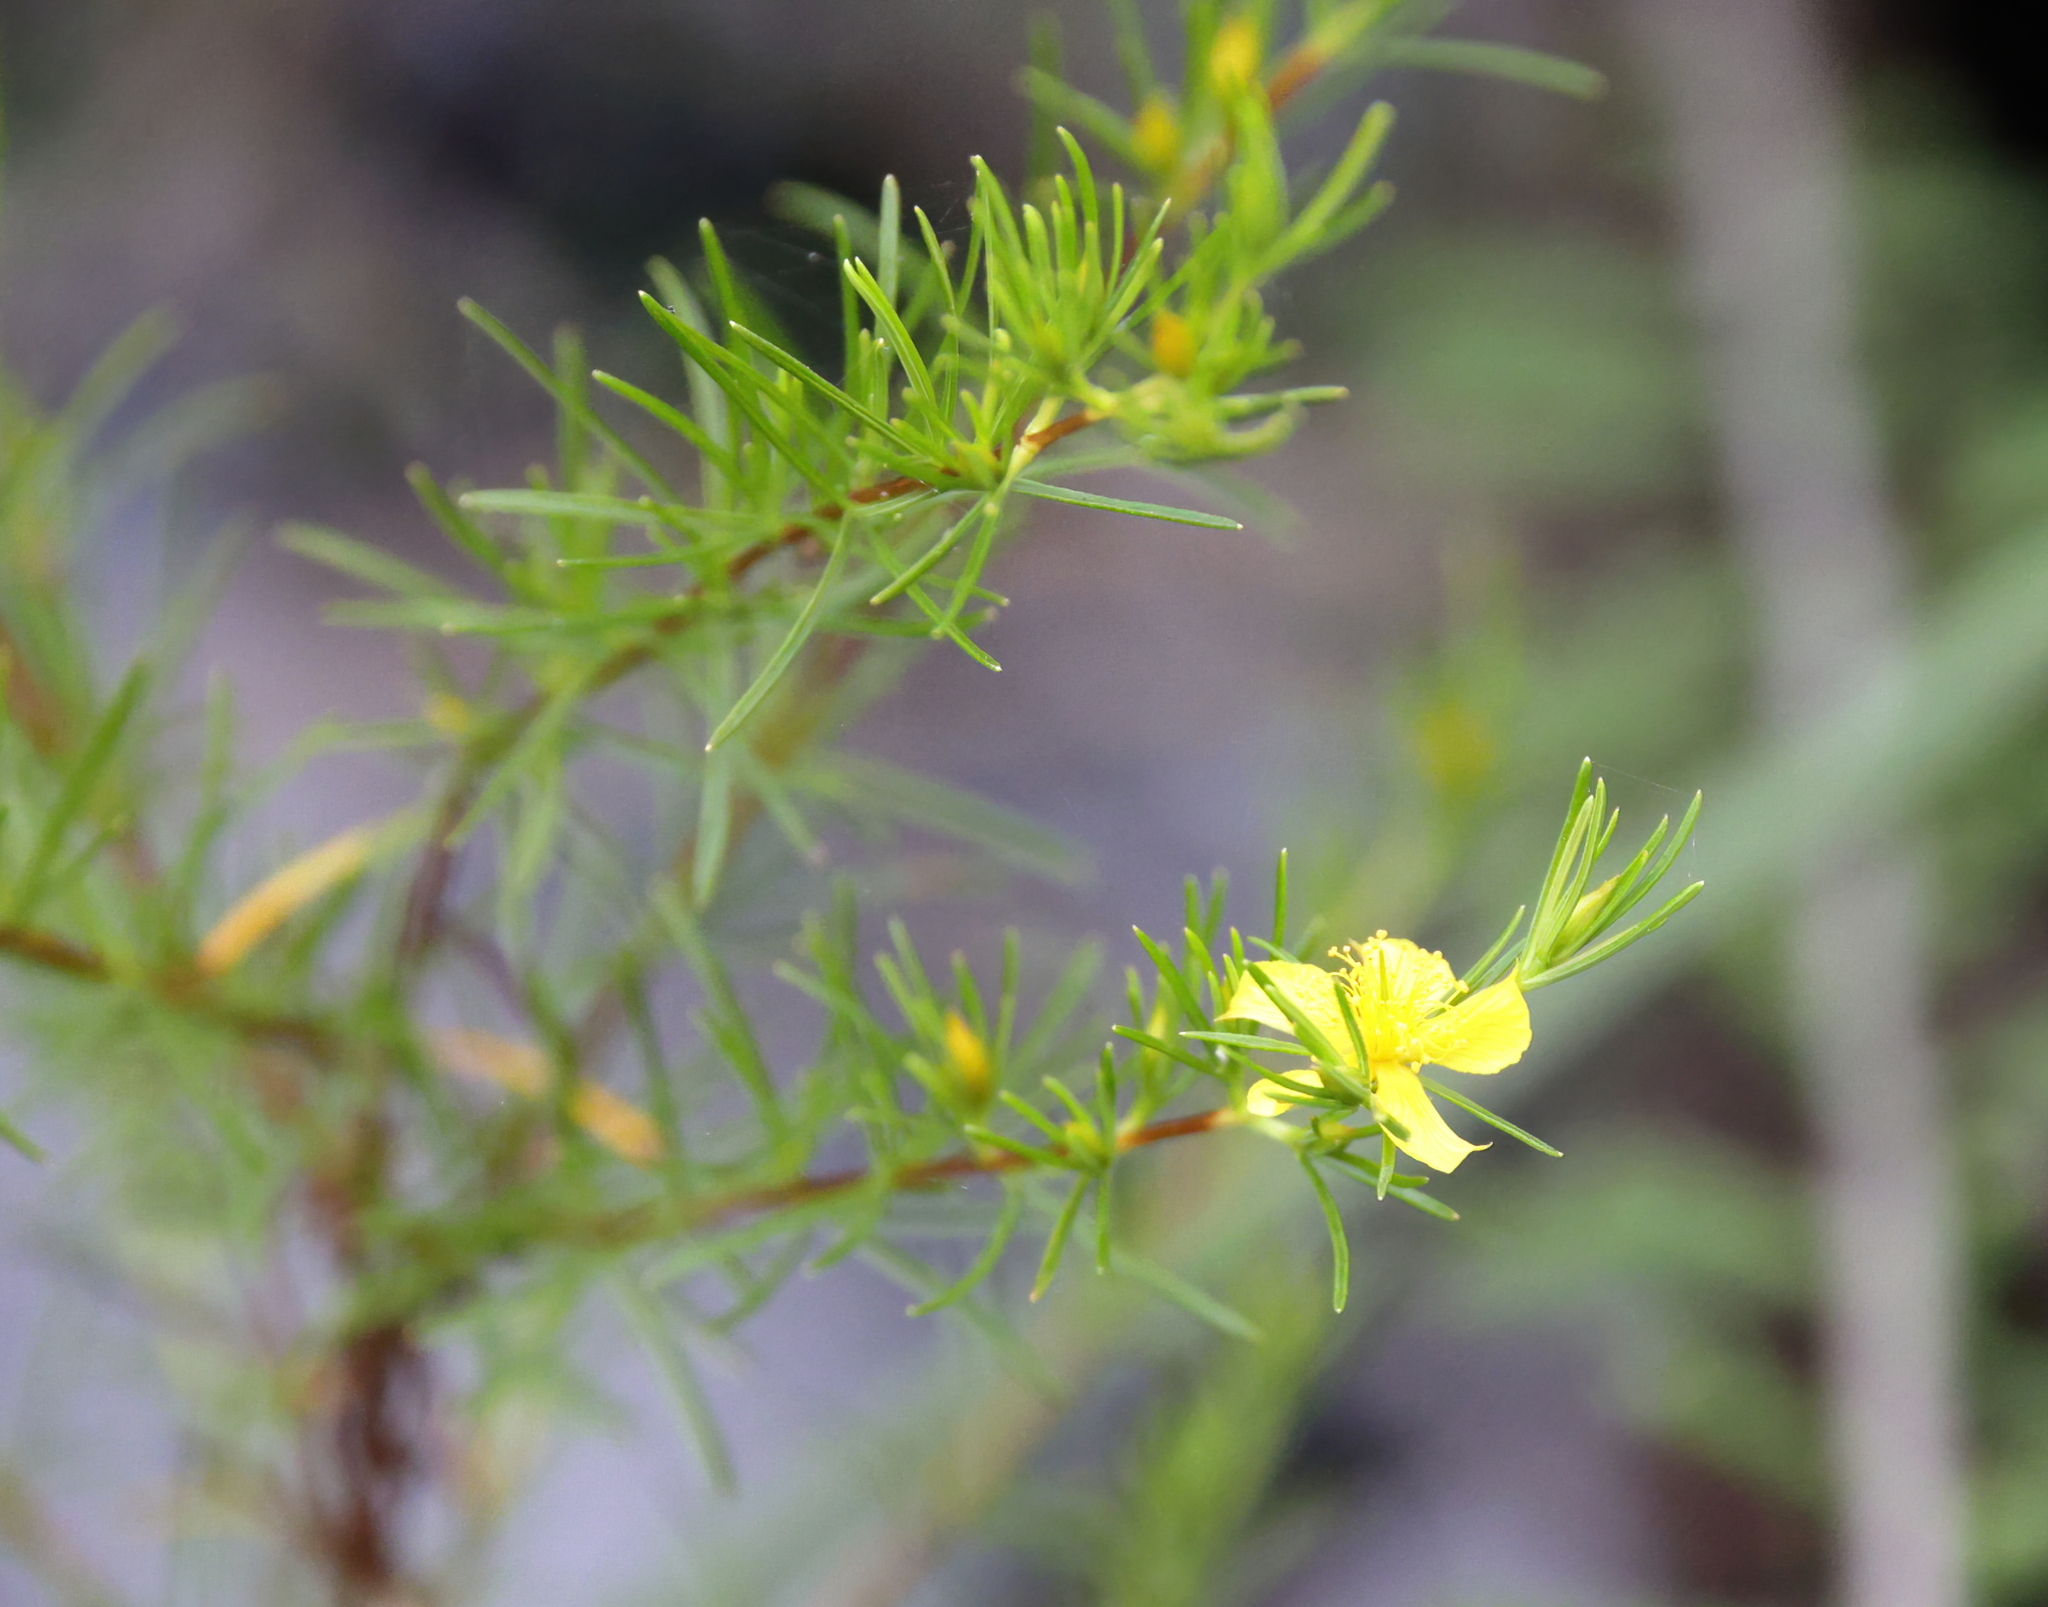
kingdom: Plantae
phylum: Tracheophyta
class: Magnoliopsida
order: Malpighiales
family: Hypericaceae
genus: Hypericum
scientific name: Hypericum fasciculatum
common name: Peelbark st. john's wort
